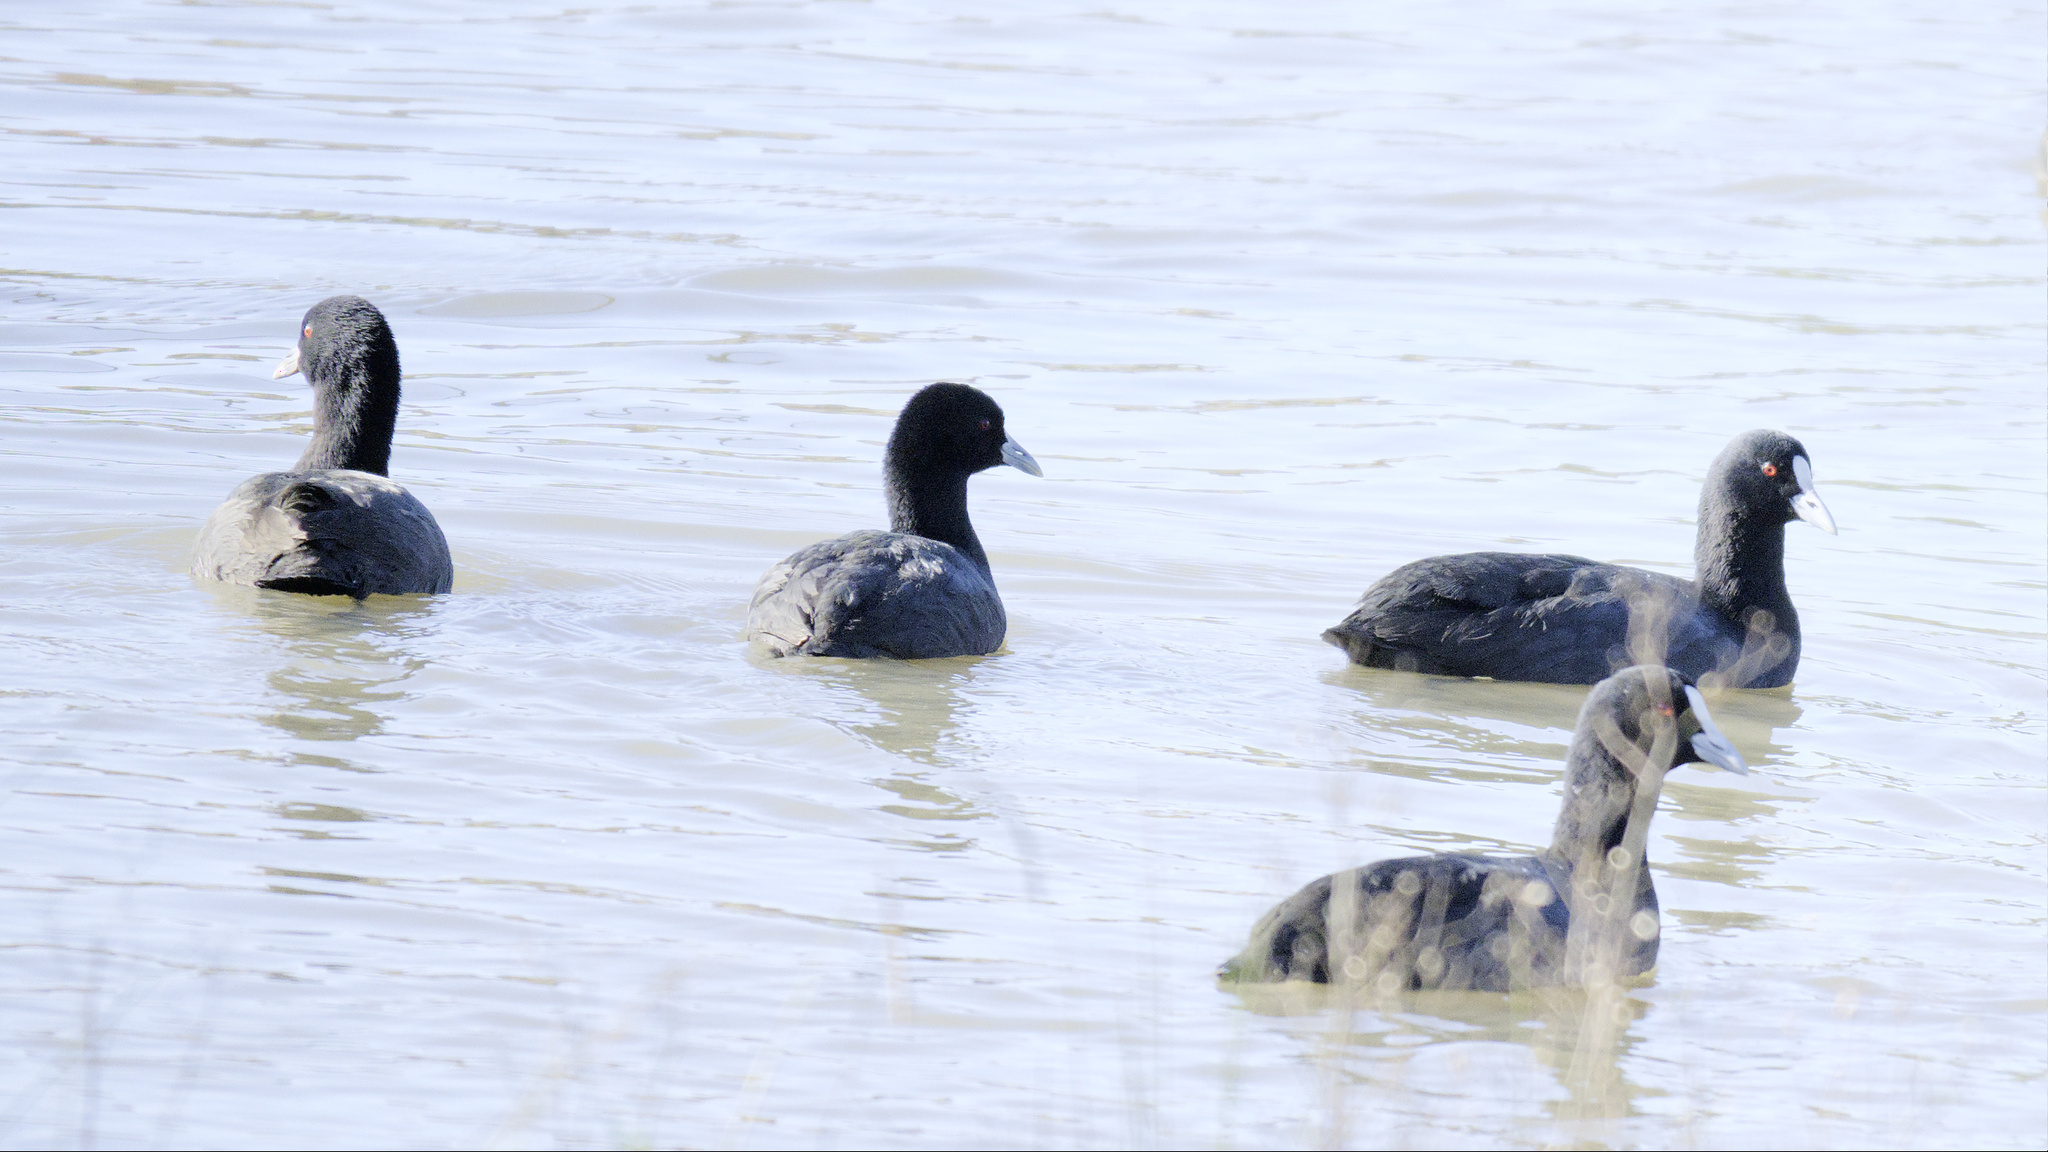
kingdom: Animalia
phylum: Chordata
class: Aves
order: Gruiformes
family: Rallidae
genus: Fulica
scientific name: Fulica atra
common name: Eurasian coot
